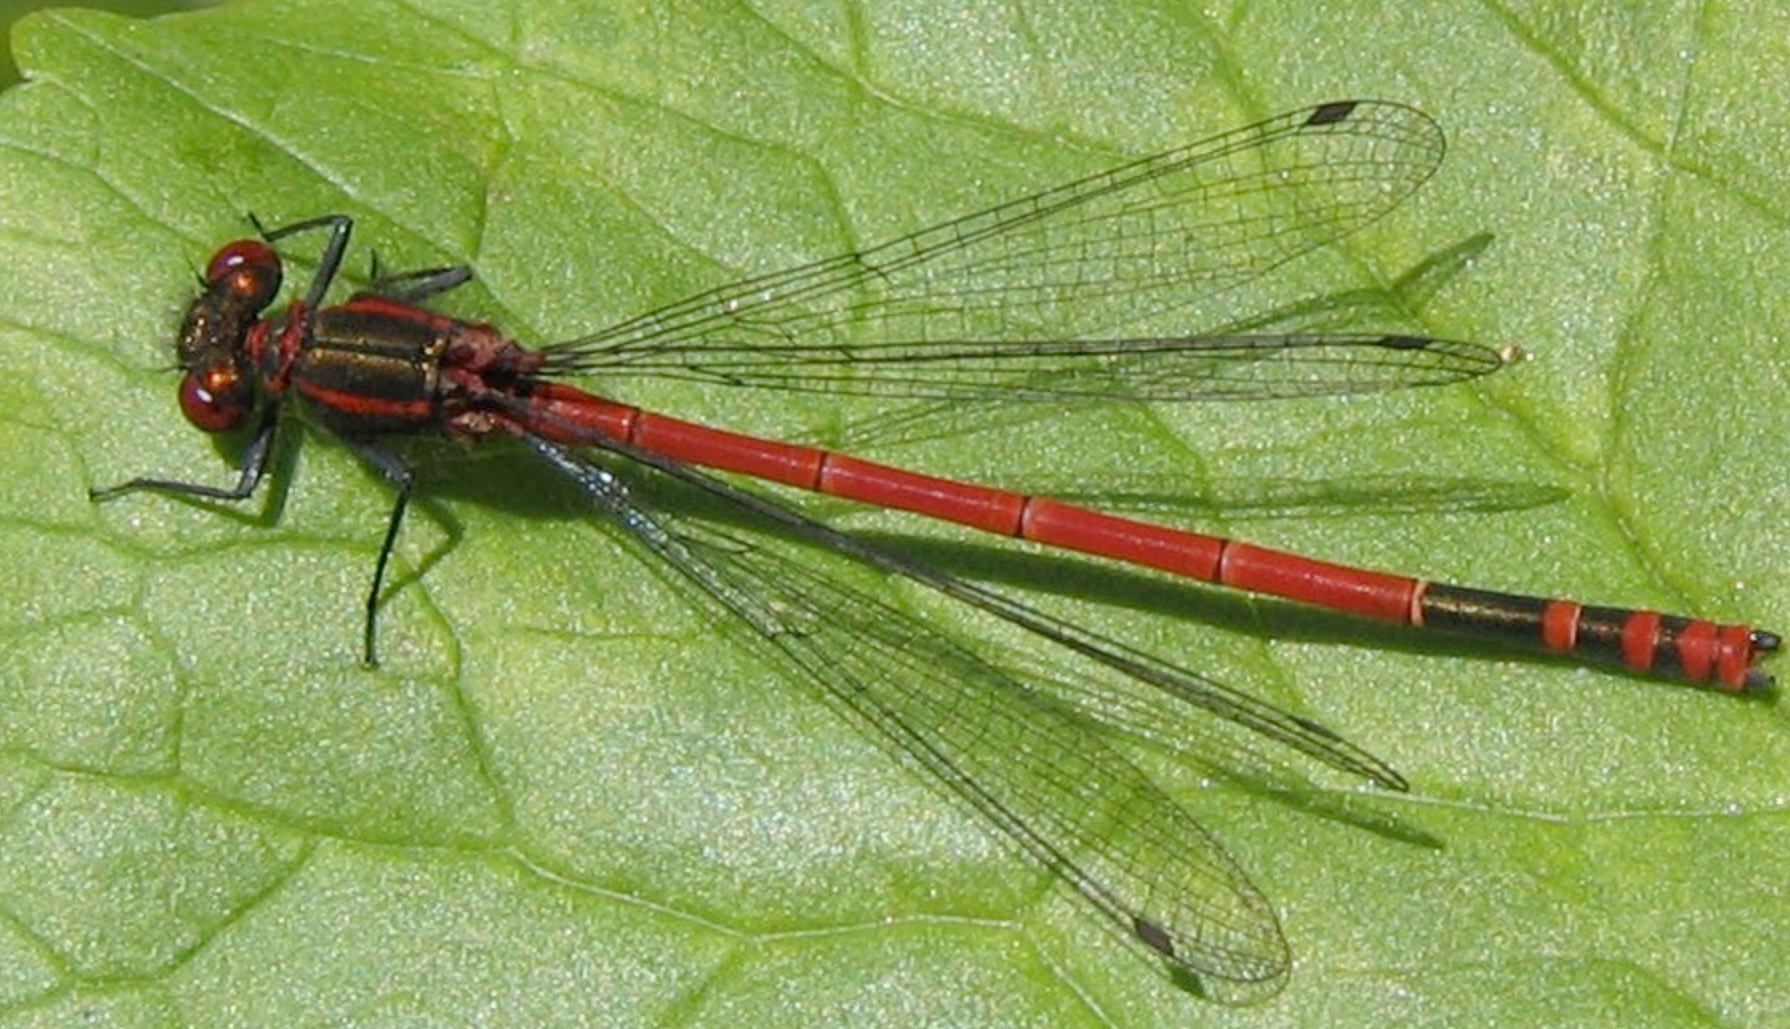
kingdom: Animalia
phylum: Arthropoda
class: Insecta
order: Odonata
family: Coenagrionidae
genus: Pyrrhosoma
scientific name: Pyrrhosoma nymphula
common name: Large red damsel
